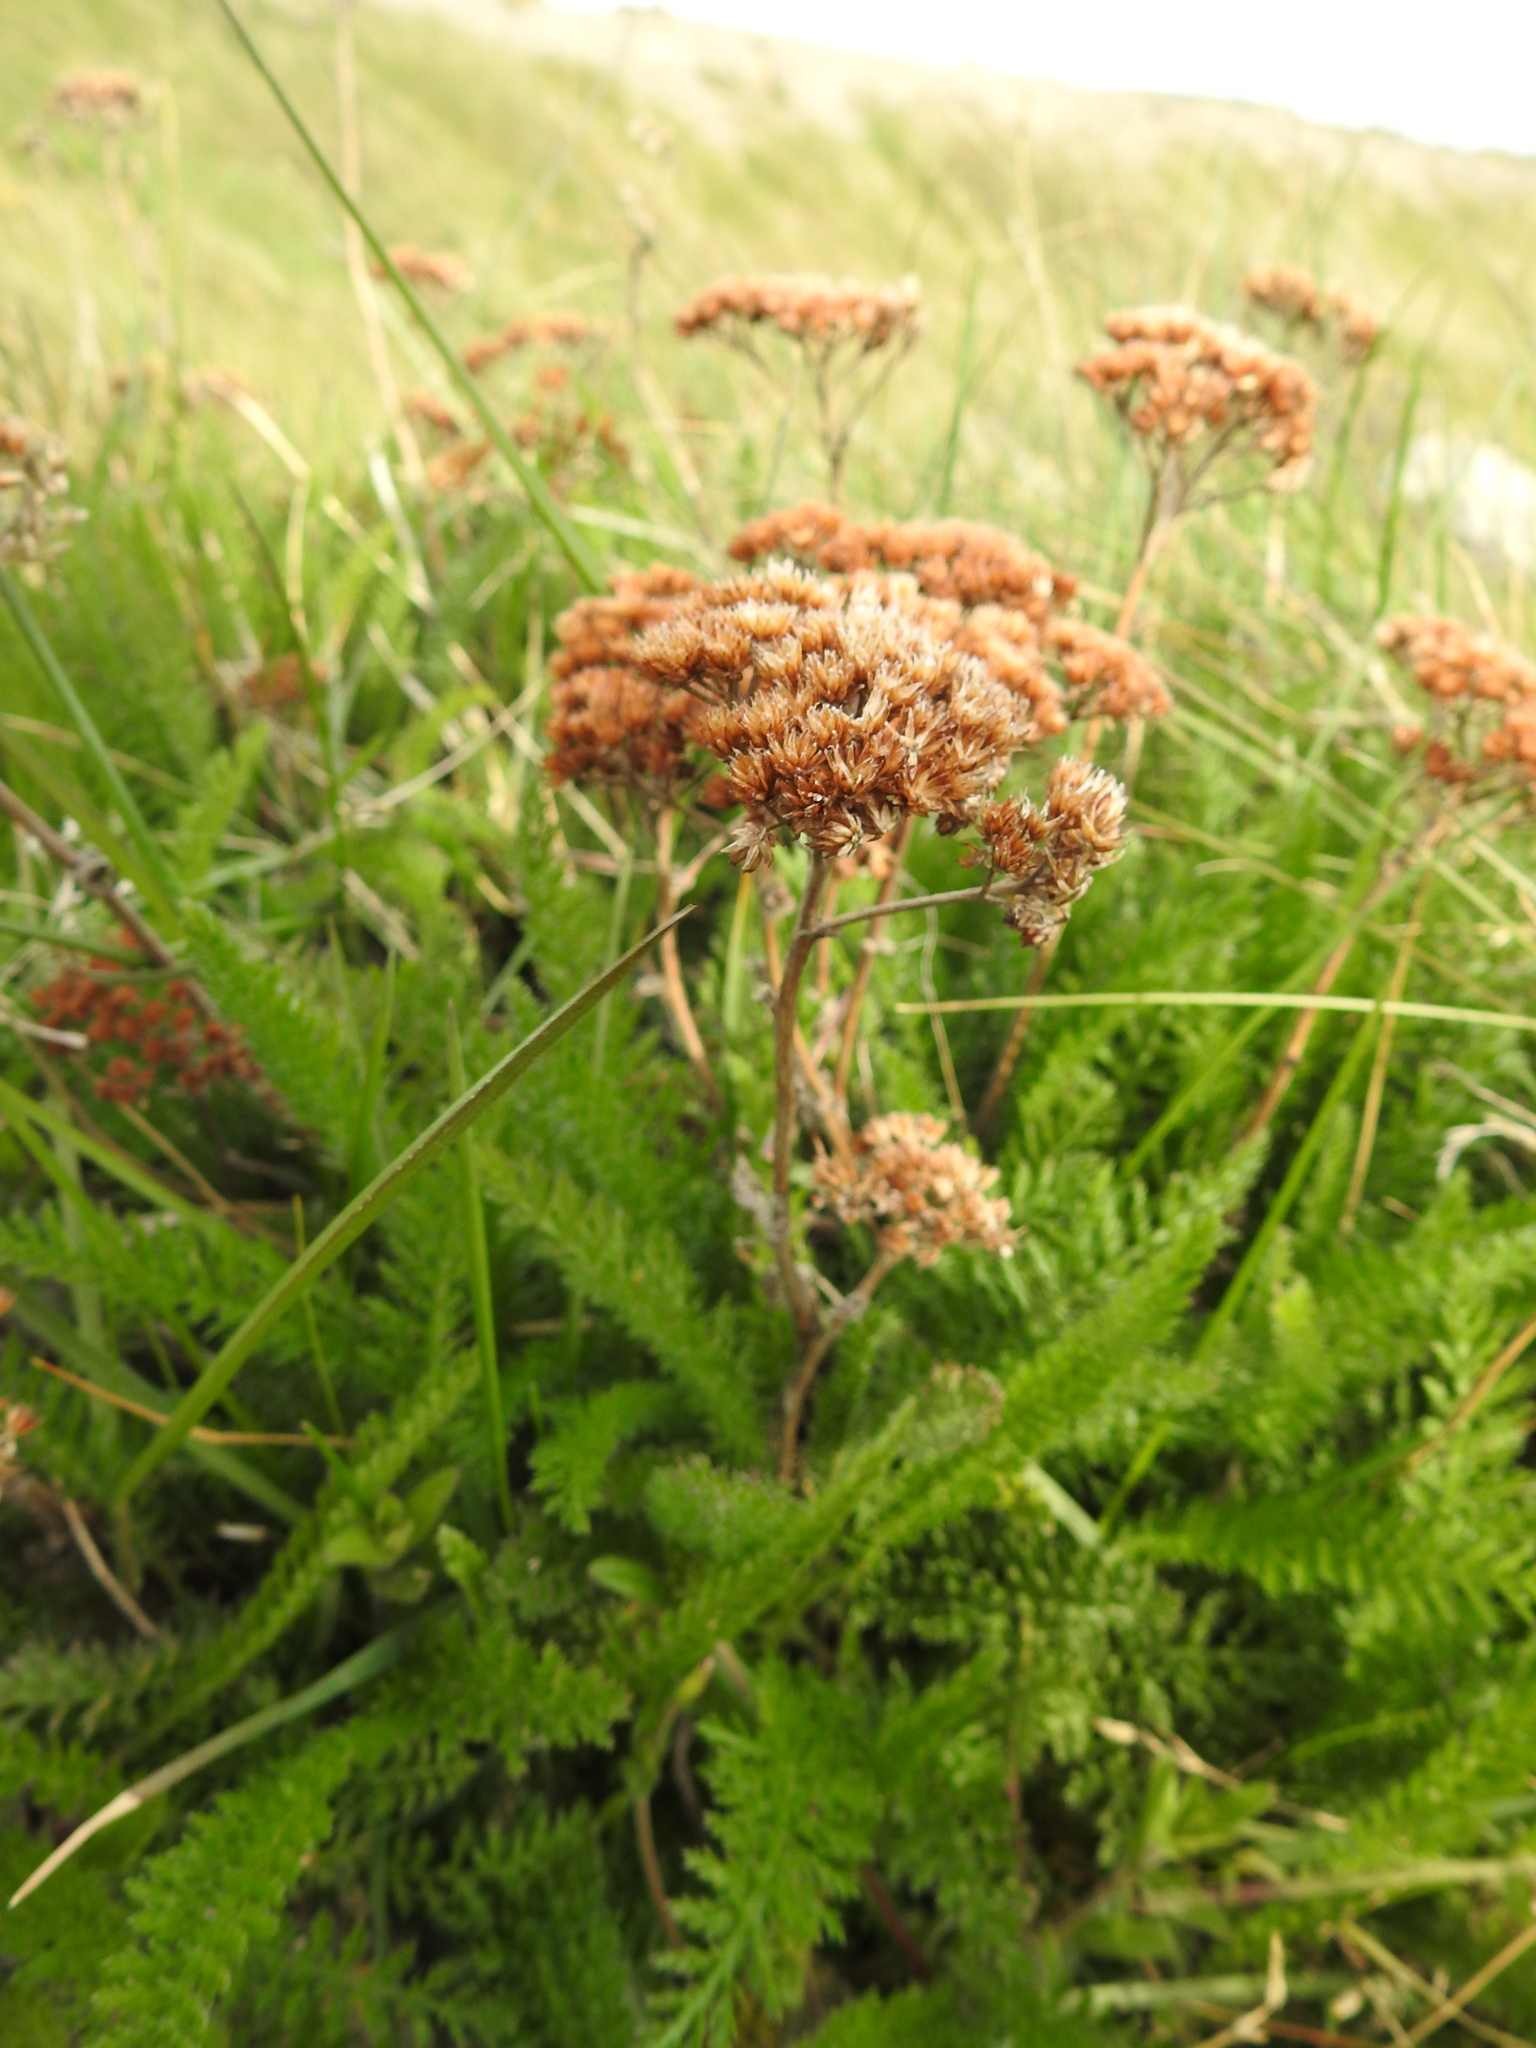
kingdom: Plantae
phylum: Tracheophyta
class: Magnoliopsida
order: Asterales
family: Asteraceae
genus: Achillea
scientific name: Achillea millefolium
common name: Yarrow
